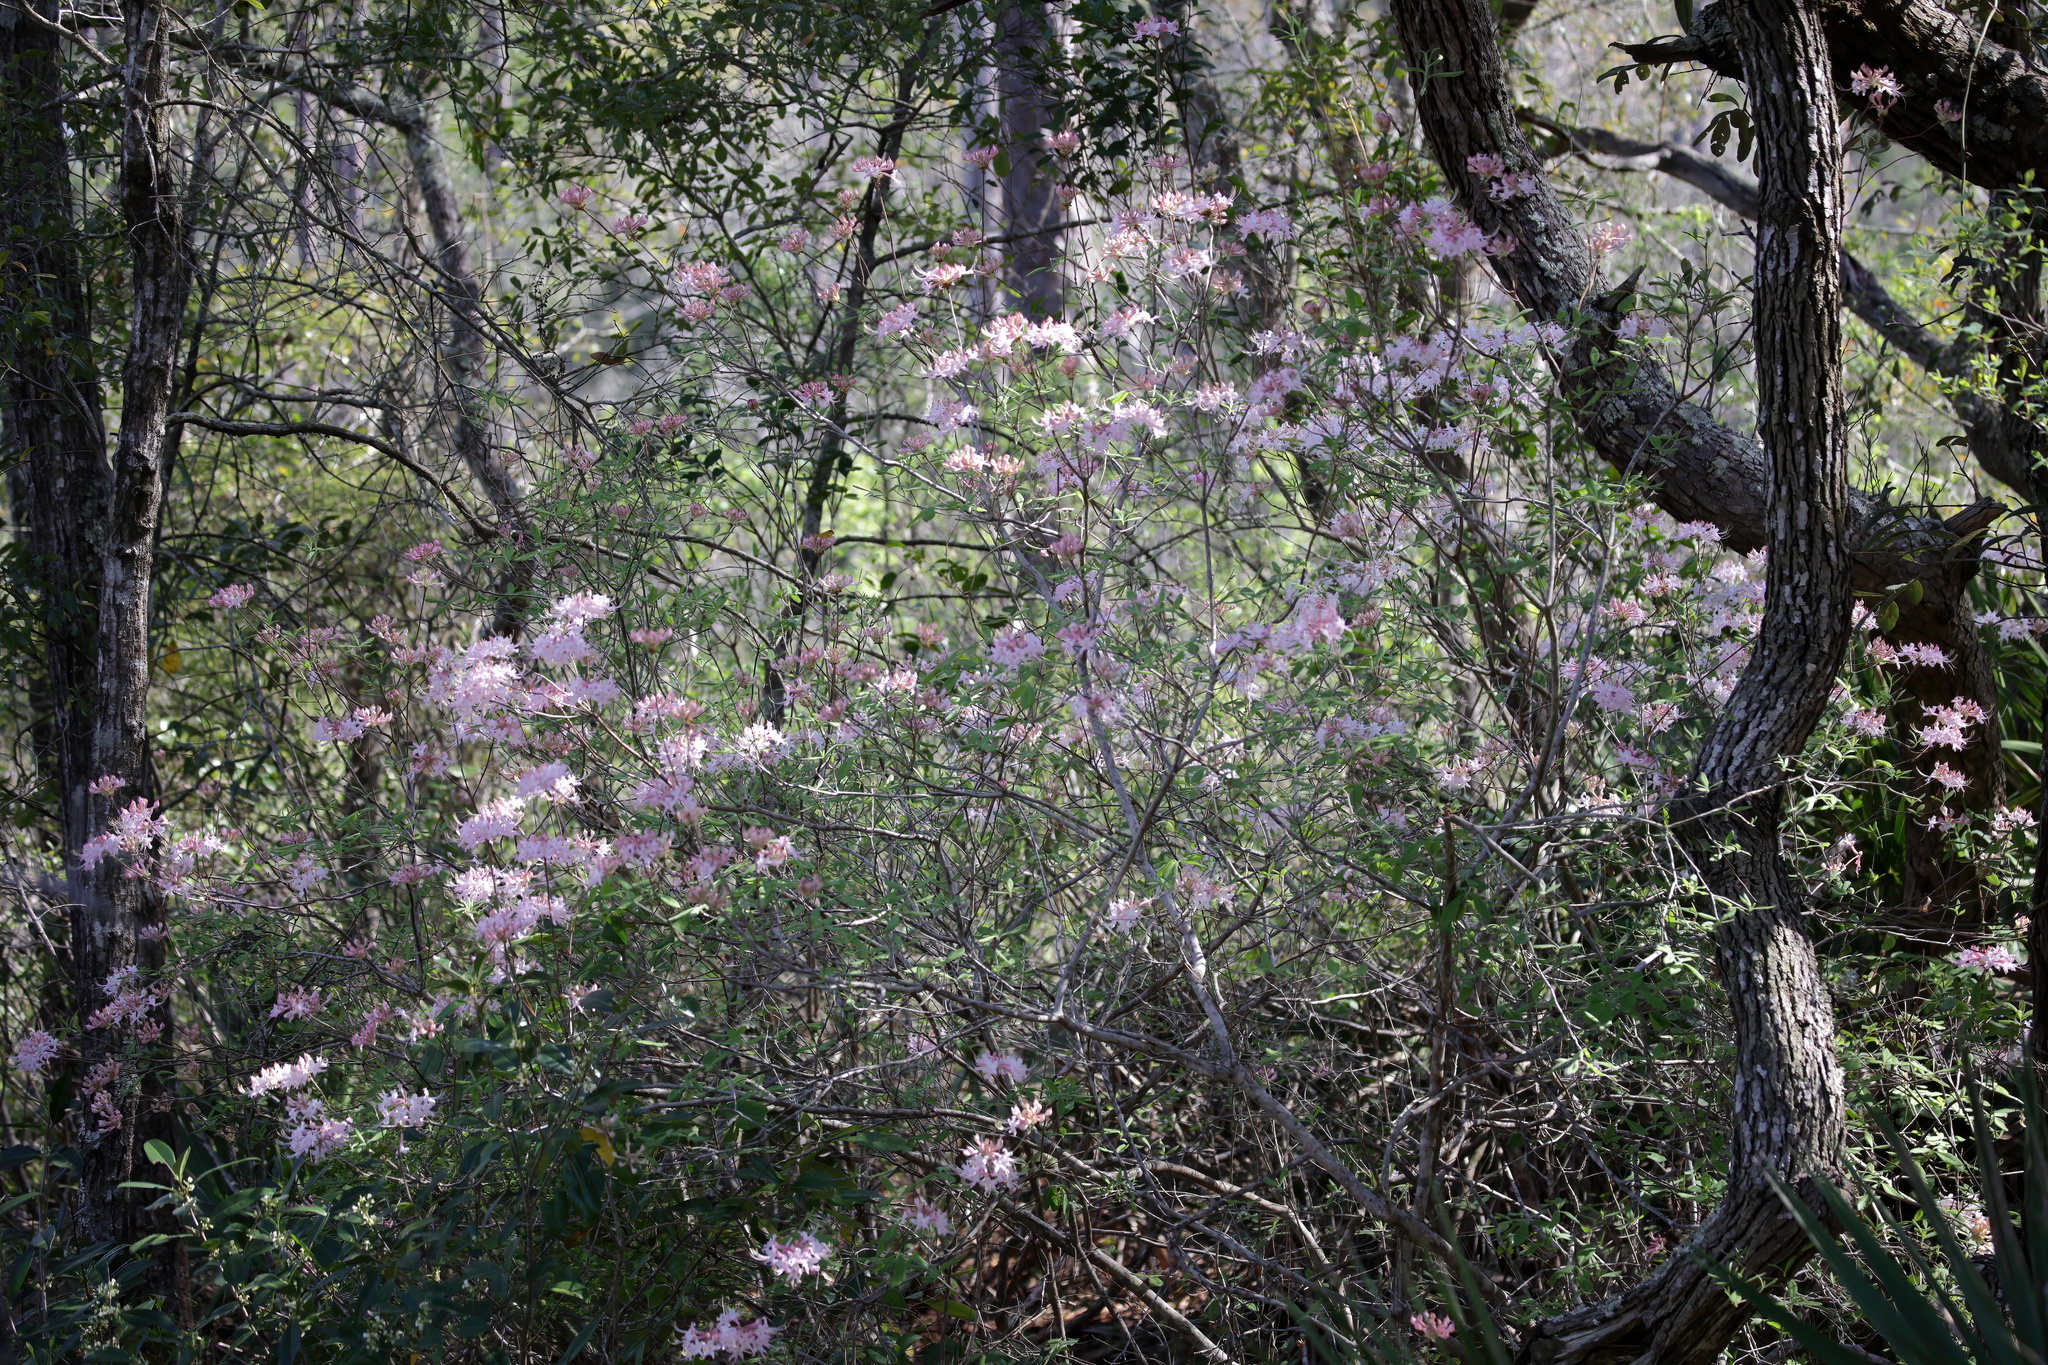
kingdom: Plantae
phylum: Tracheophyta
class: Magnoliopsida
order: Ericales
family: Ericaceae
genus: Rhododendron
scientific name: Rhododendron canescens
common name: Mountain azalea
